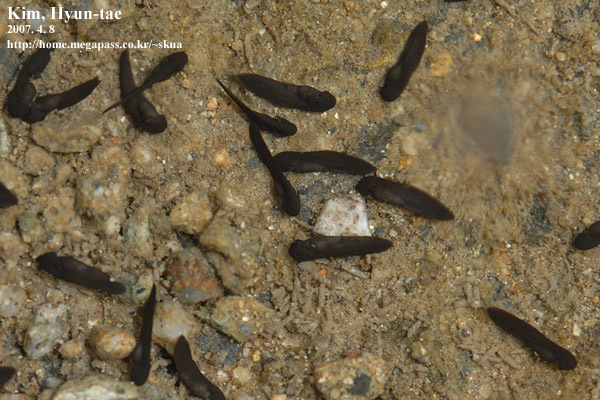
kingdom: Animalia
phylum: Chordata
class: Amphibia
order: Anura
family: Ranidae
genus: Rana
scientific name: Rana huanrenensis
